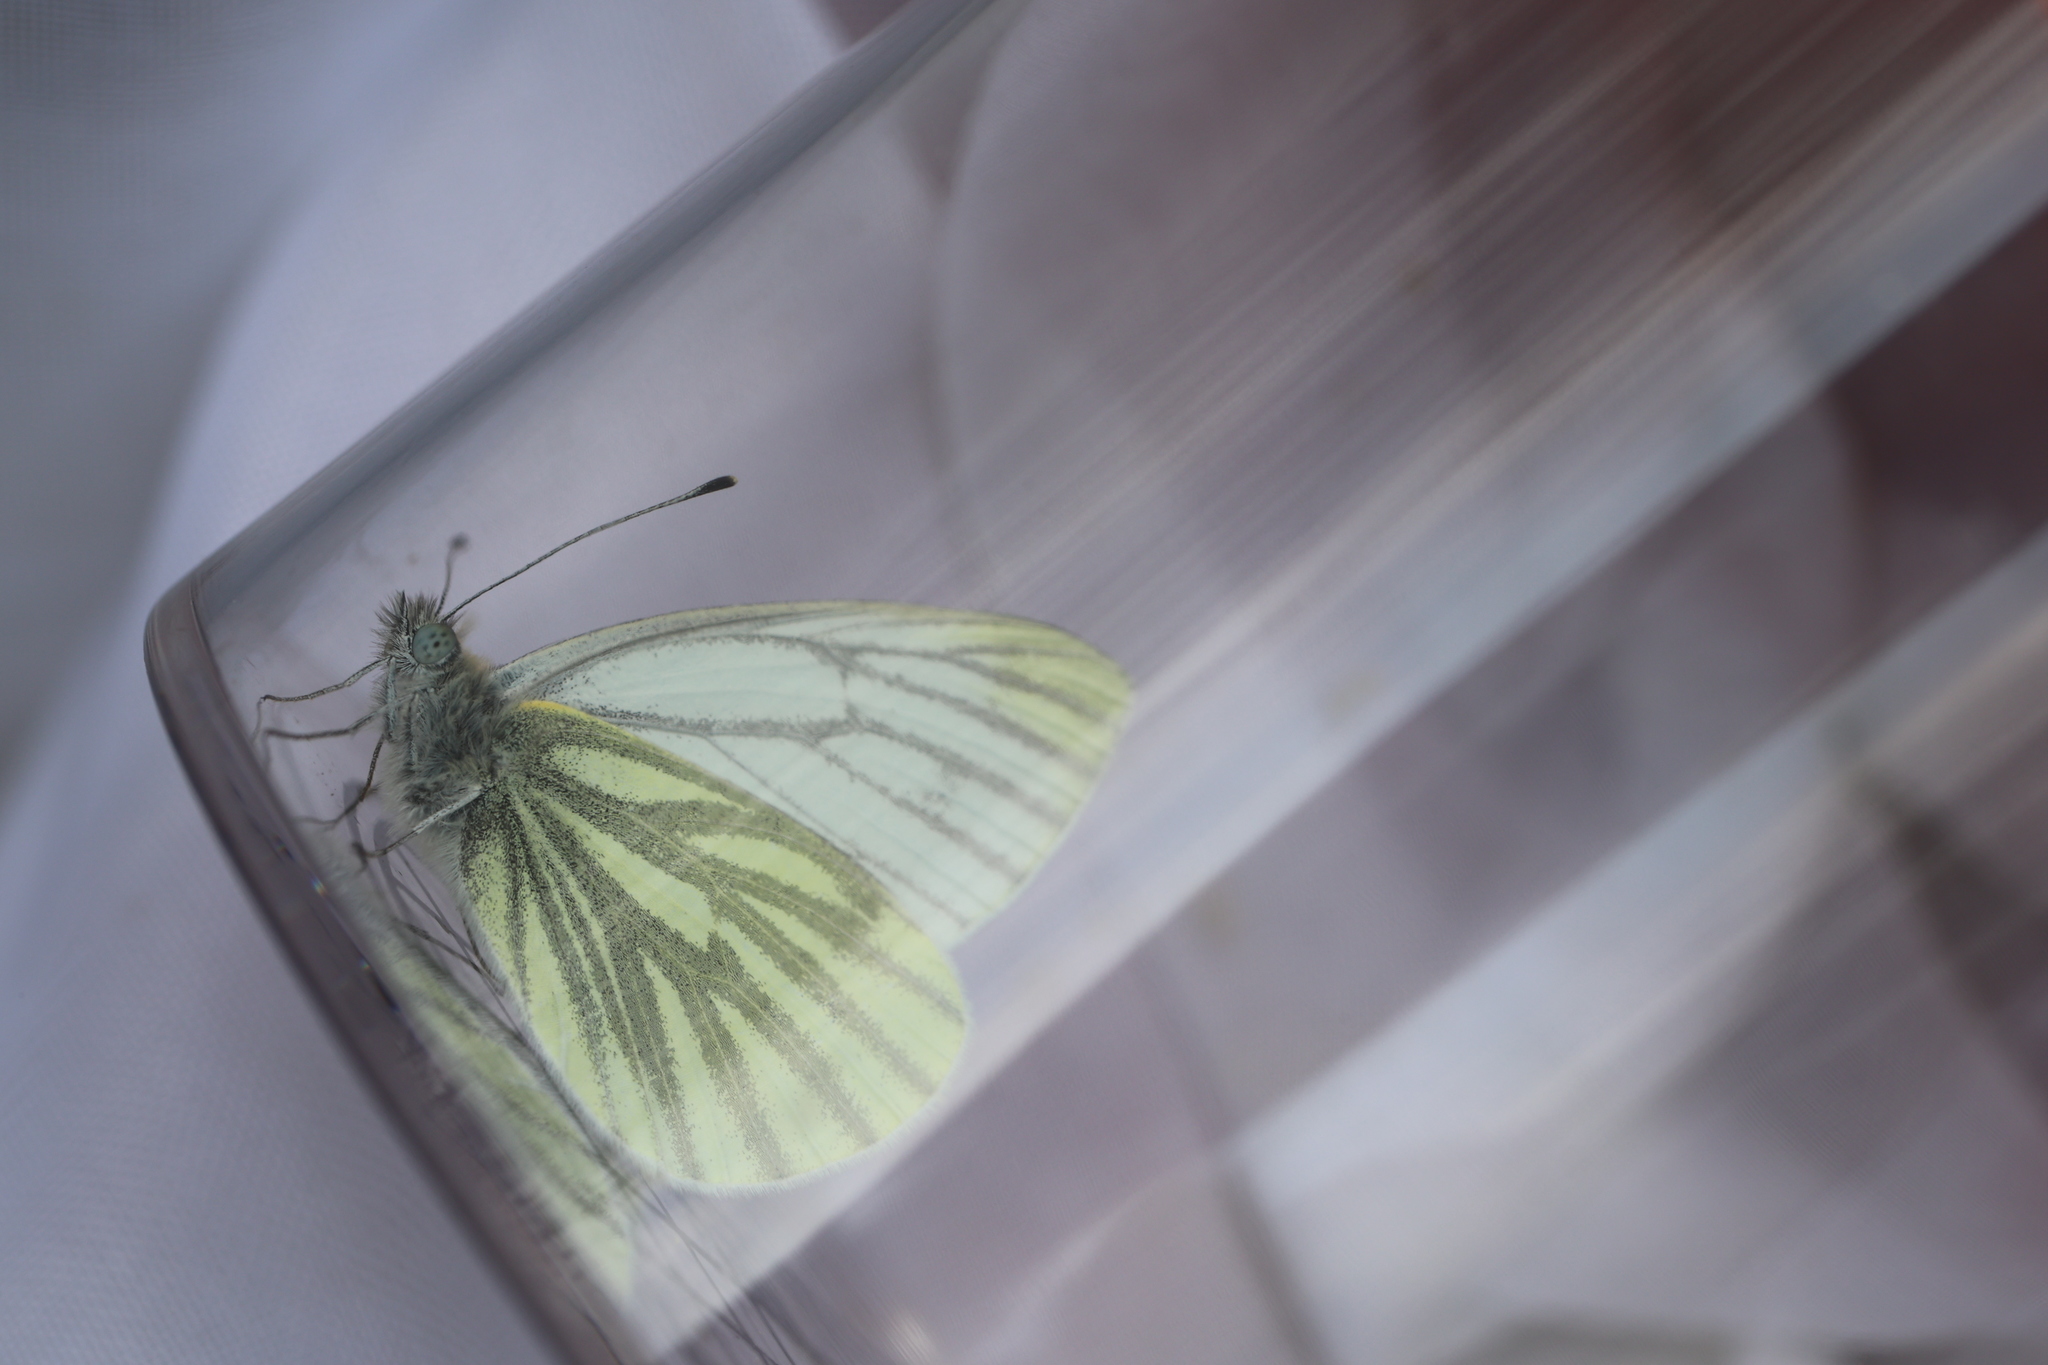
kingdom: Animalia
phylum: Arthropoda
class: Insecta
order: Lepidoptera
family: Pieridae
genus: Pieris
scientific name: Pieris napi
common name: Green-veined white
